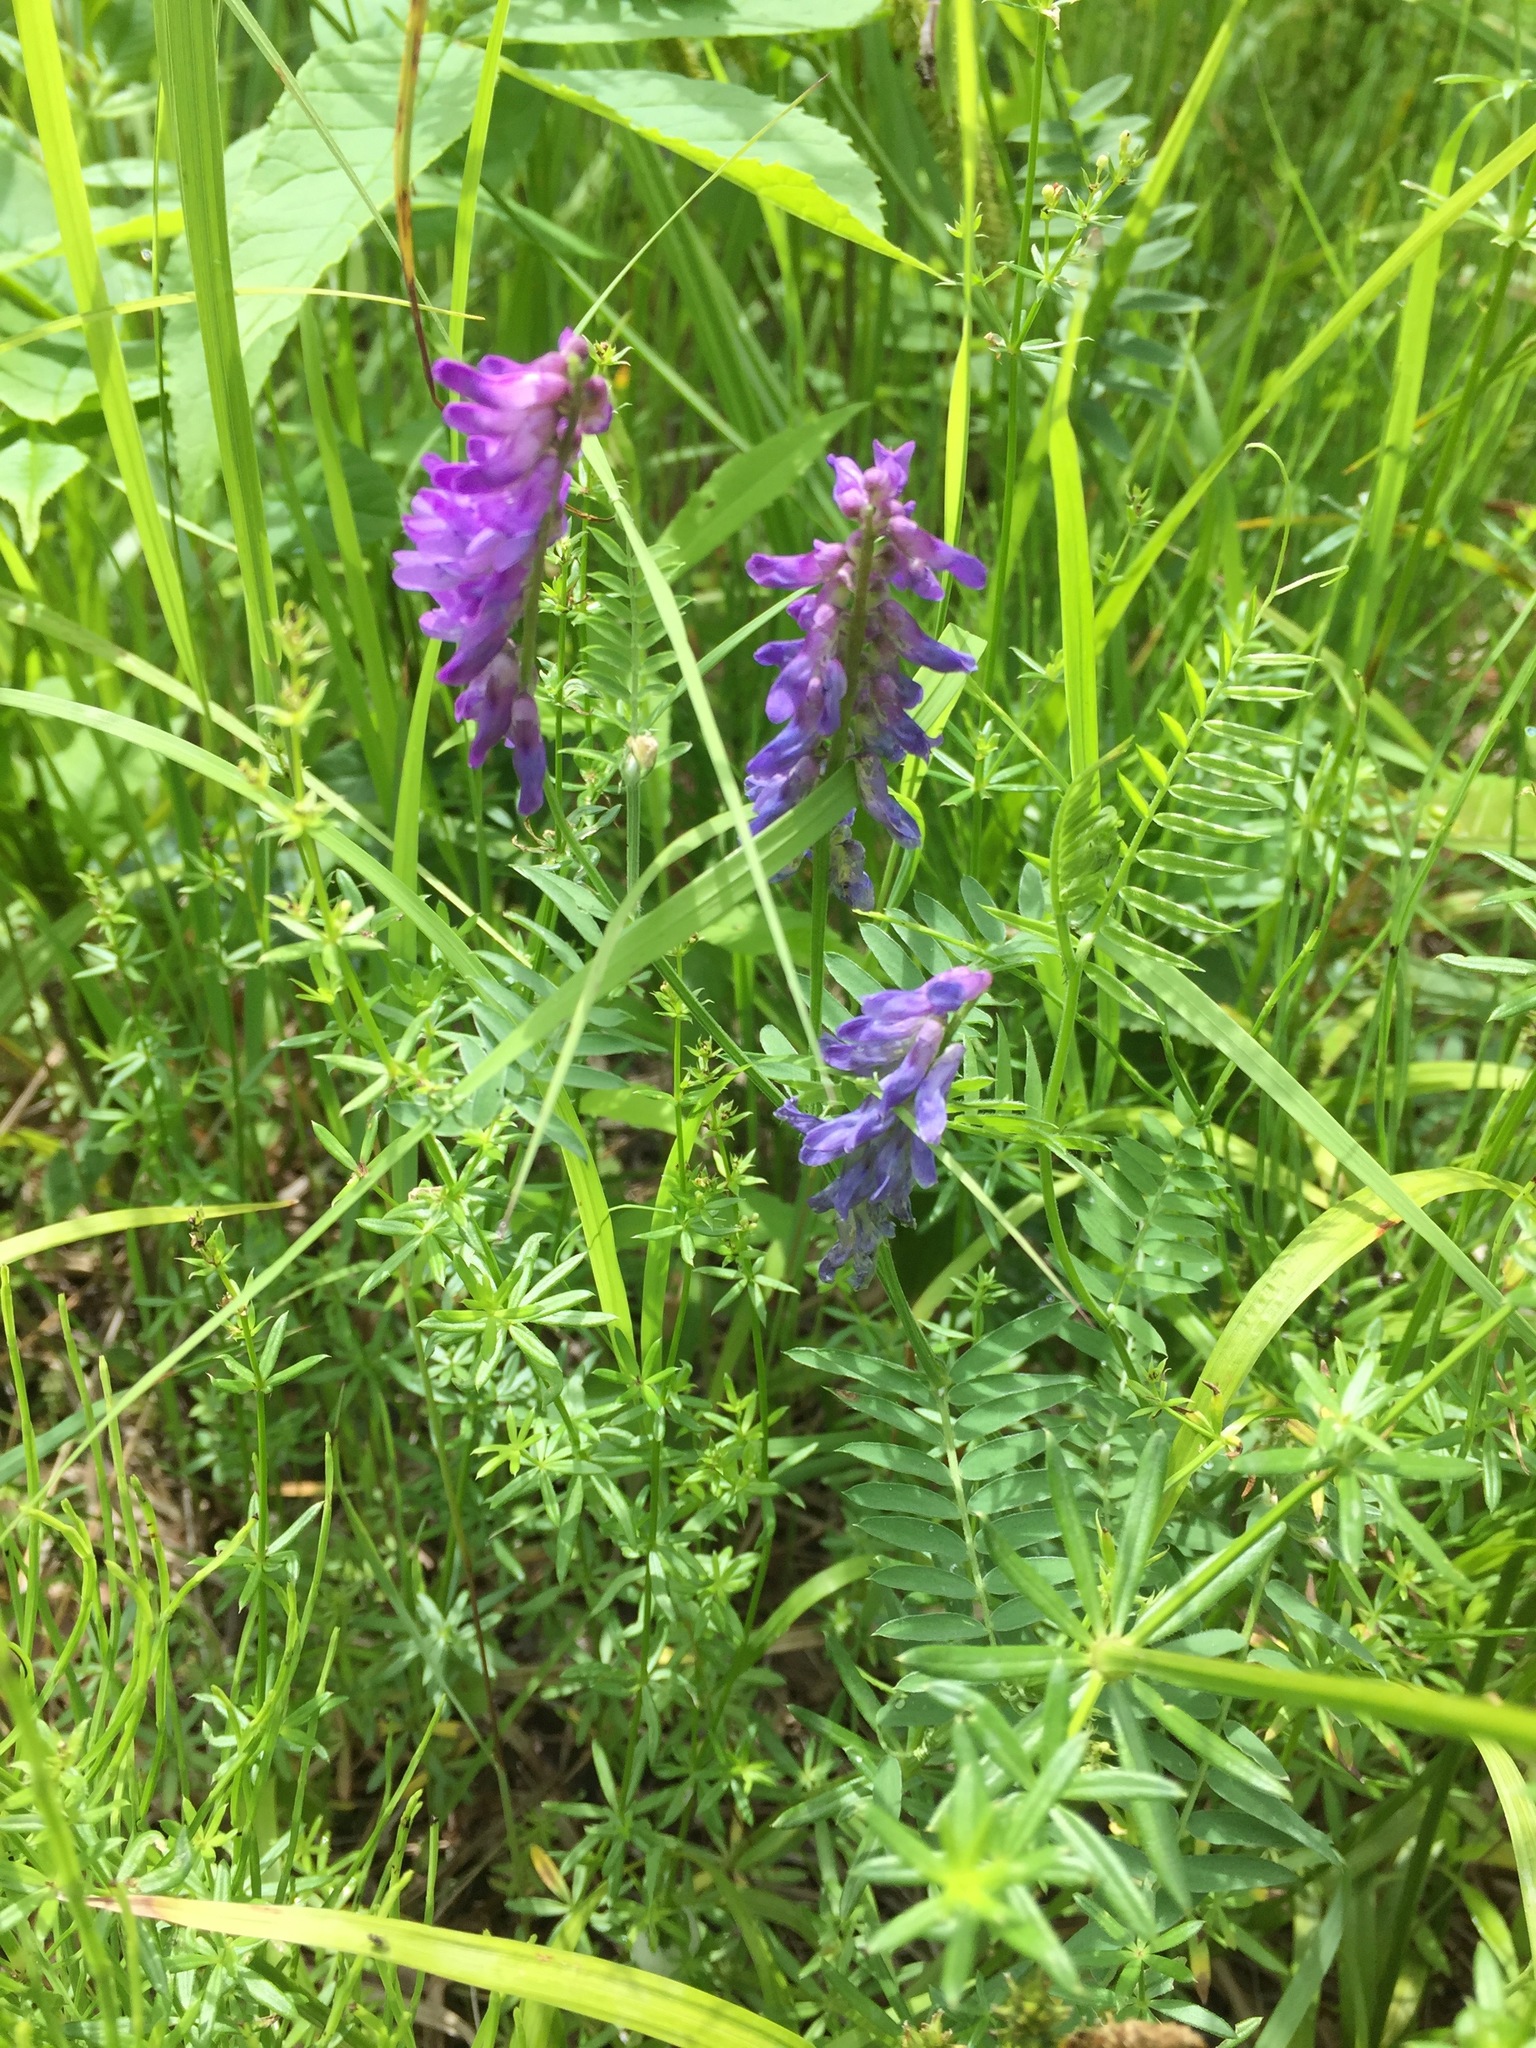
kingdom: Plantae
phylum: Tracheophyta
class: Magnoliopsida
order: Fabales
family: Fabaceae
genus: Vicia
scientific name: Vicia cracca
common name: Bird vetch
